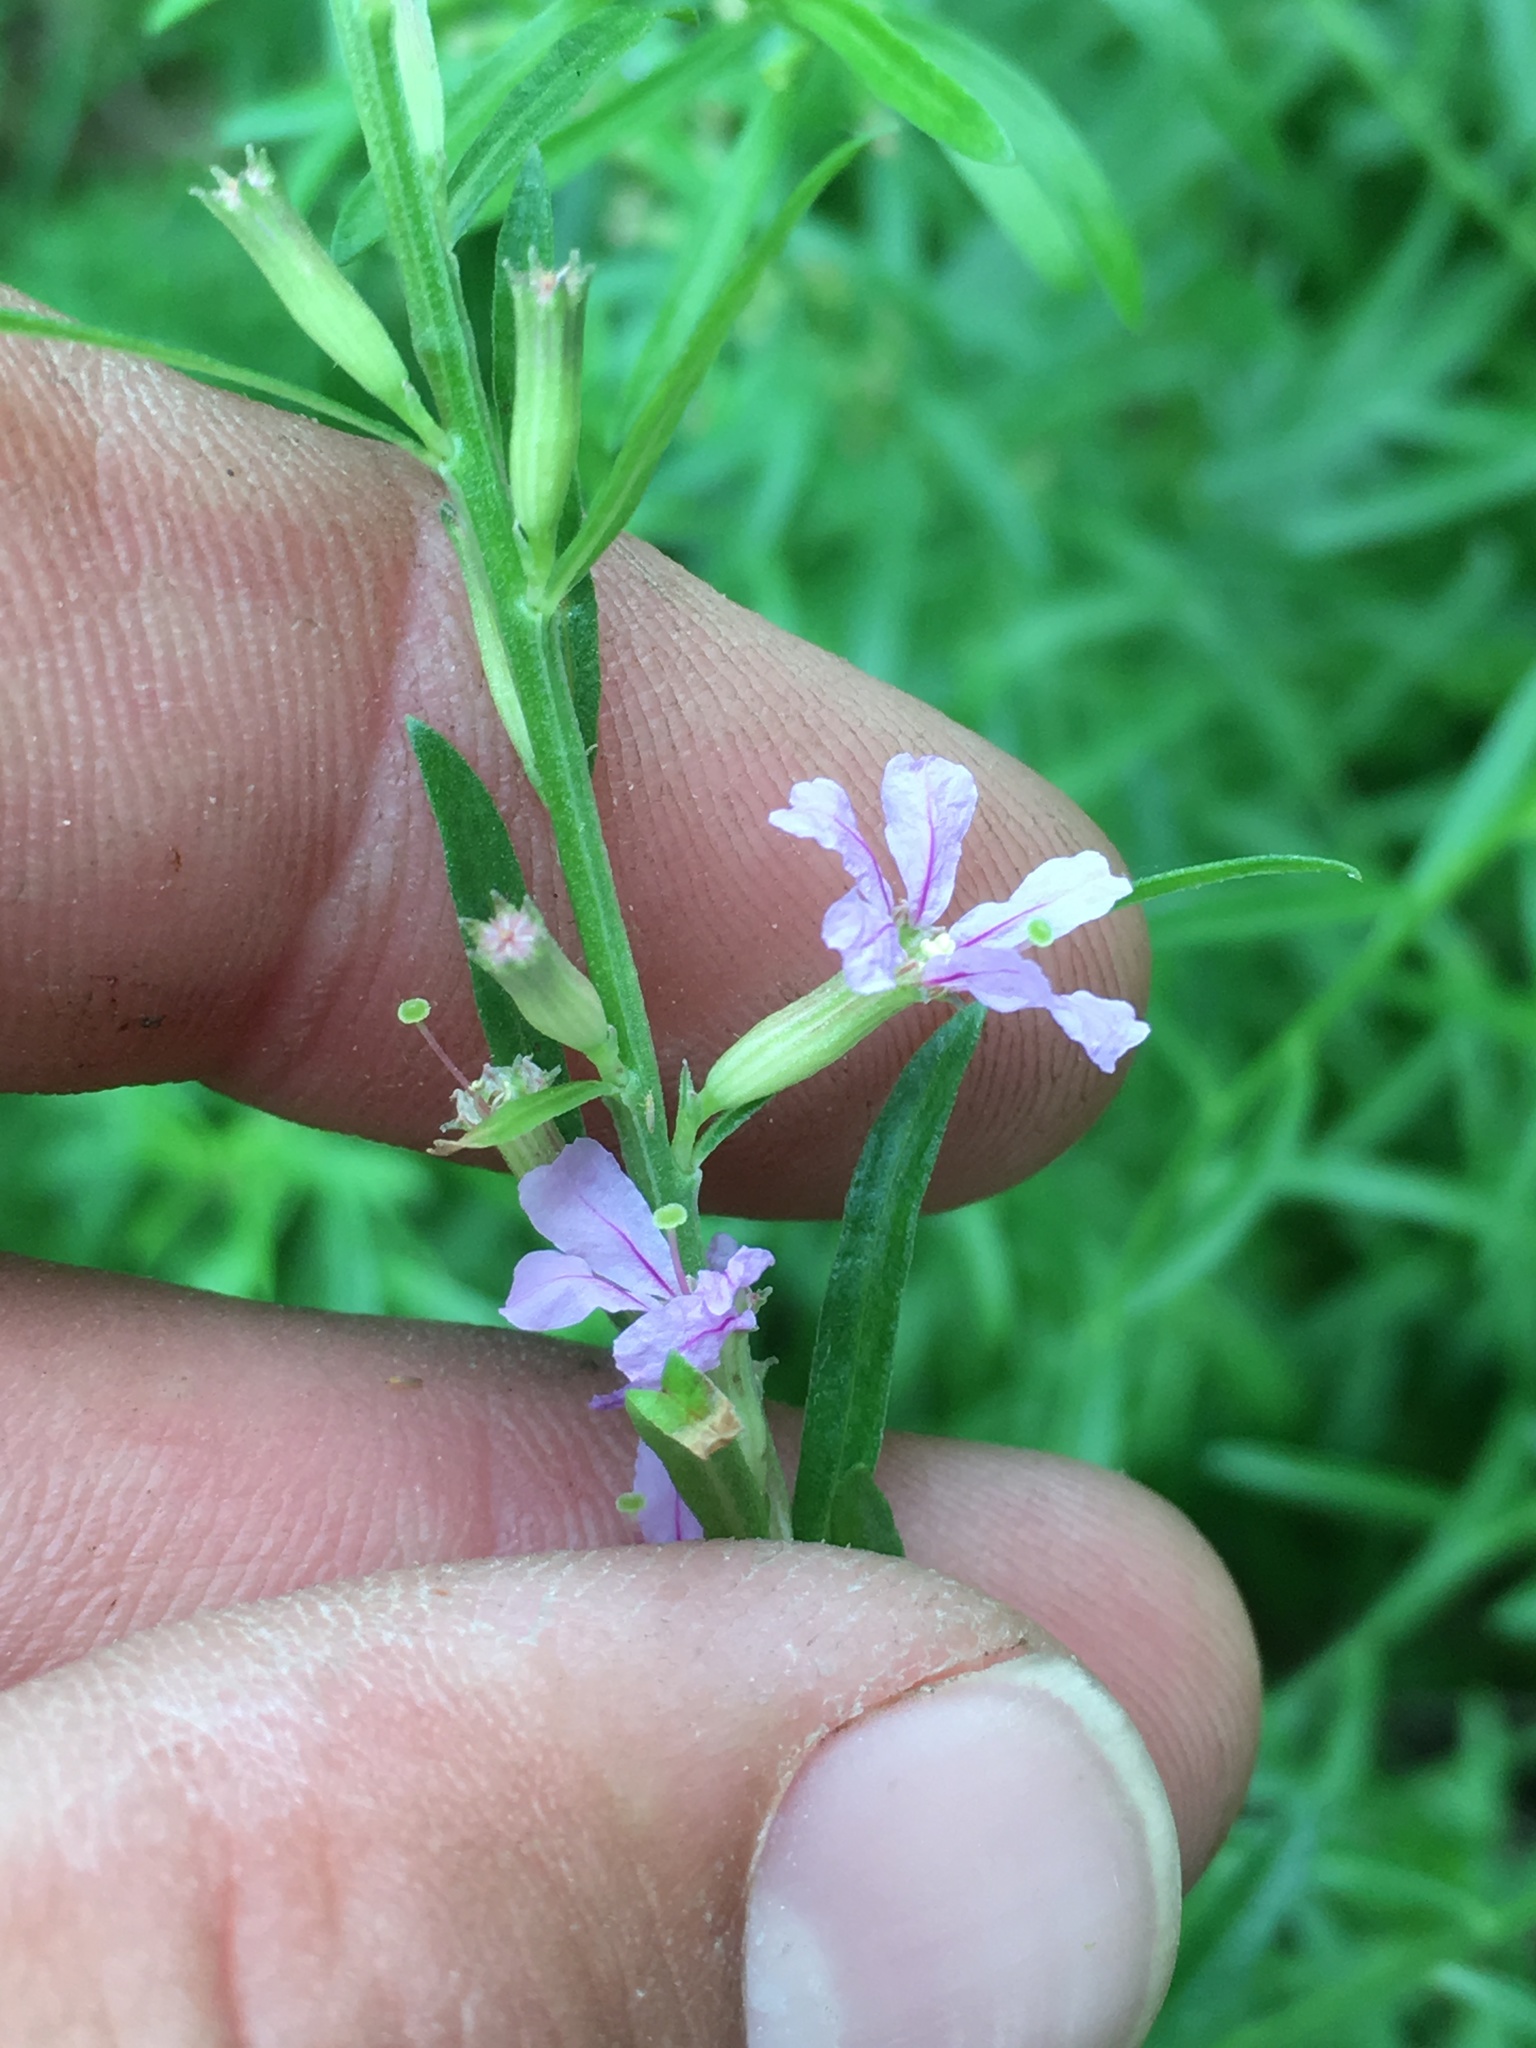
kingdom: Plantae
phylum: Tracheophyta
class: Magnoliopsida
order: Myrtales
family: Lythraceae
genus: Lythrum
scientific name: Lythrum californicum
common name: California loosestrife
